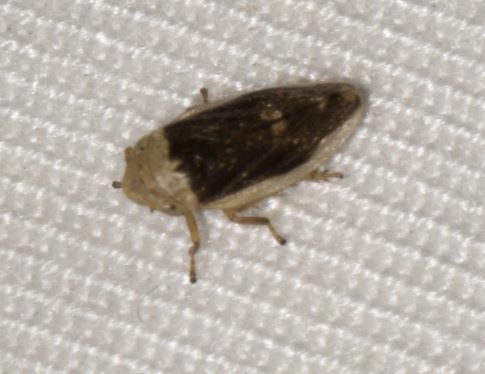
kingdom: Animalia
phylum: Arthropoda
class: Insecta
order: Hemiptera
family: Aphrophoridae
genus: Philaenus
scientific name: Philaenus spumarius
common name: Meadow spittlebug
